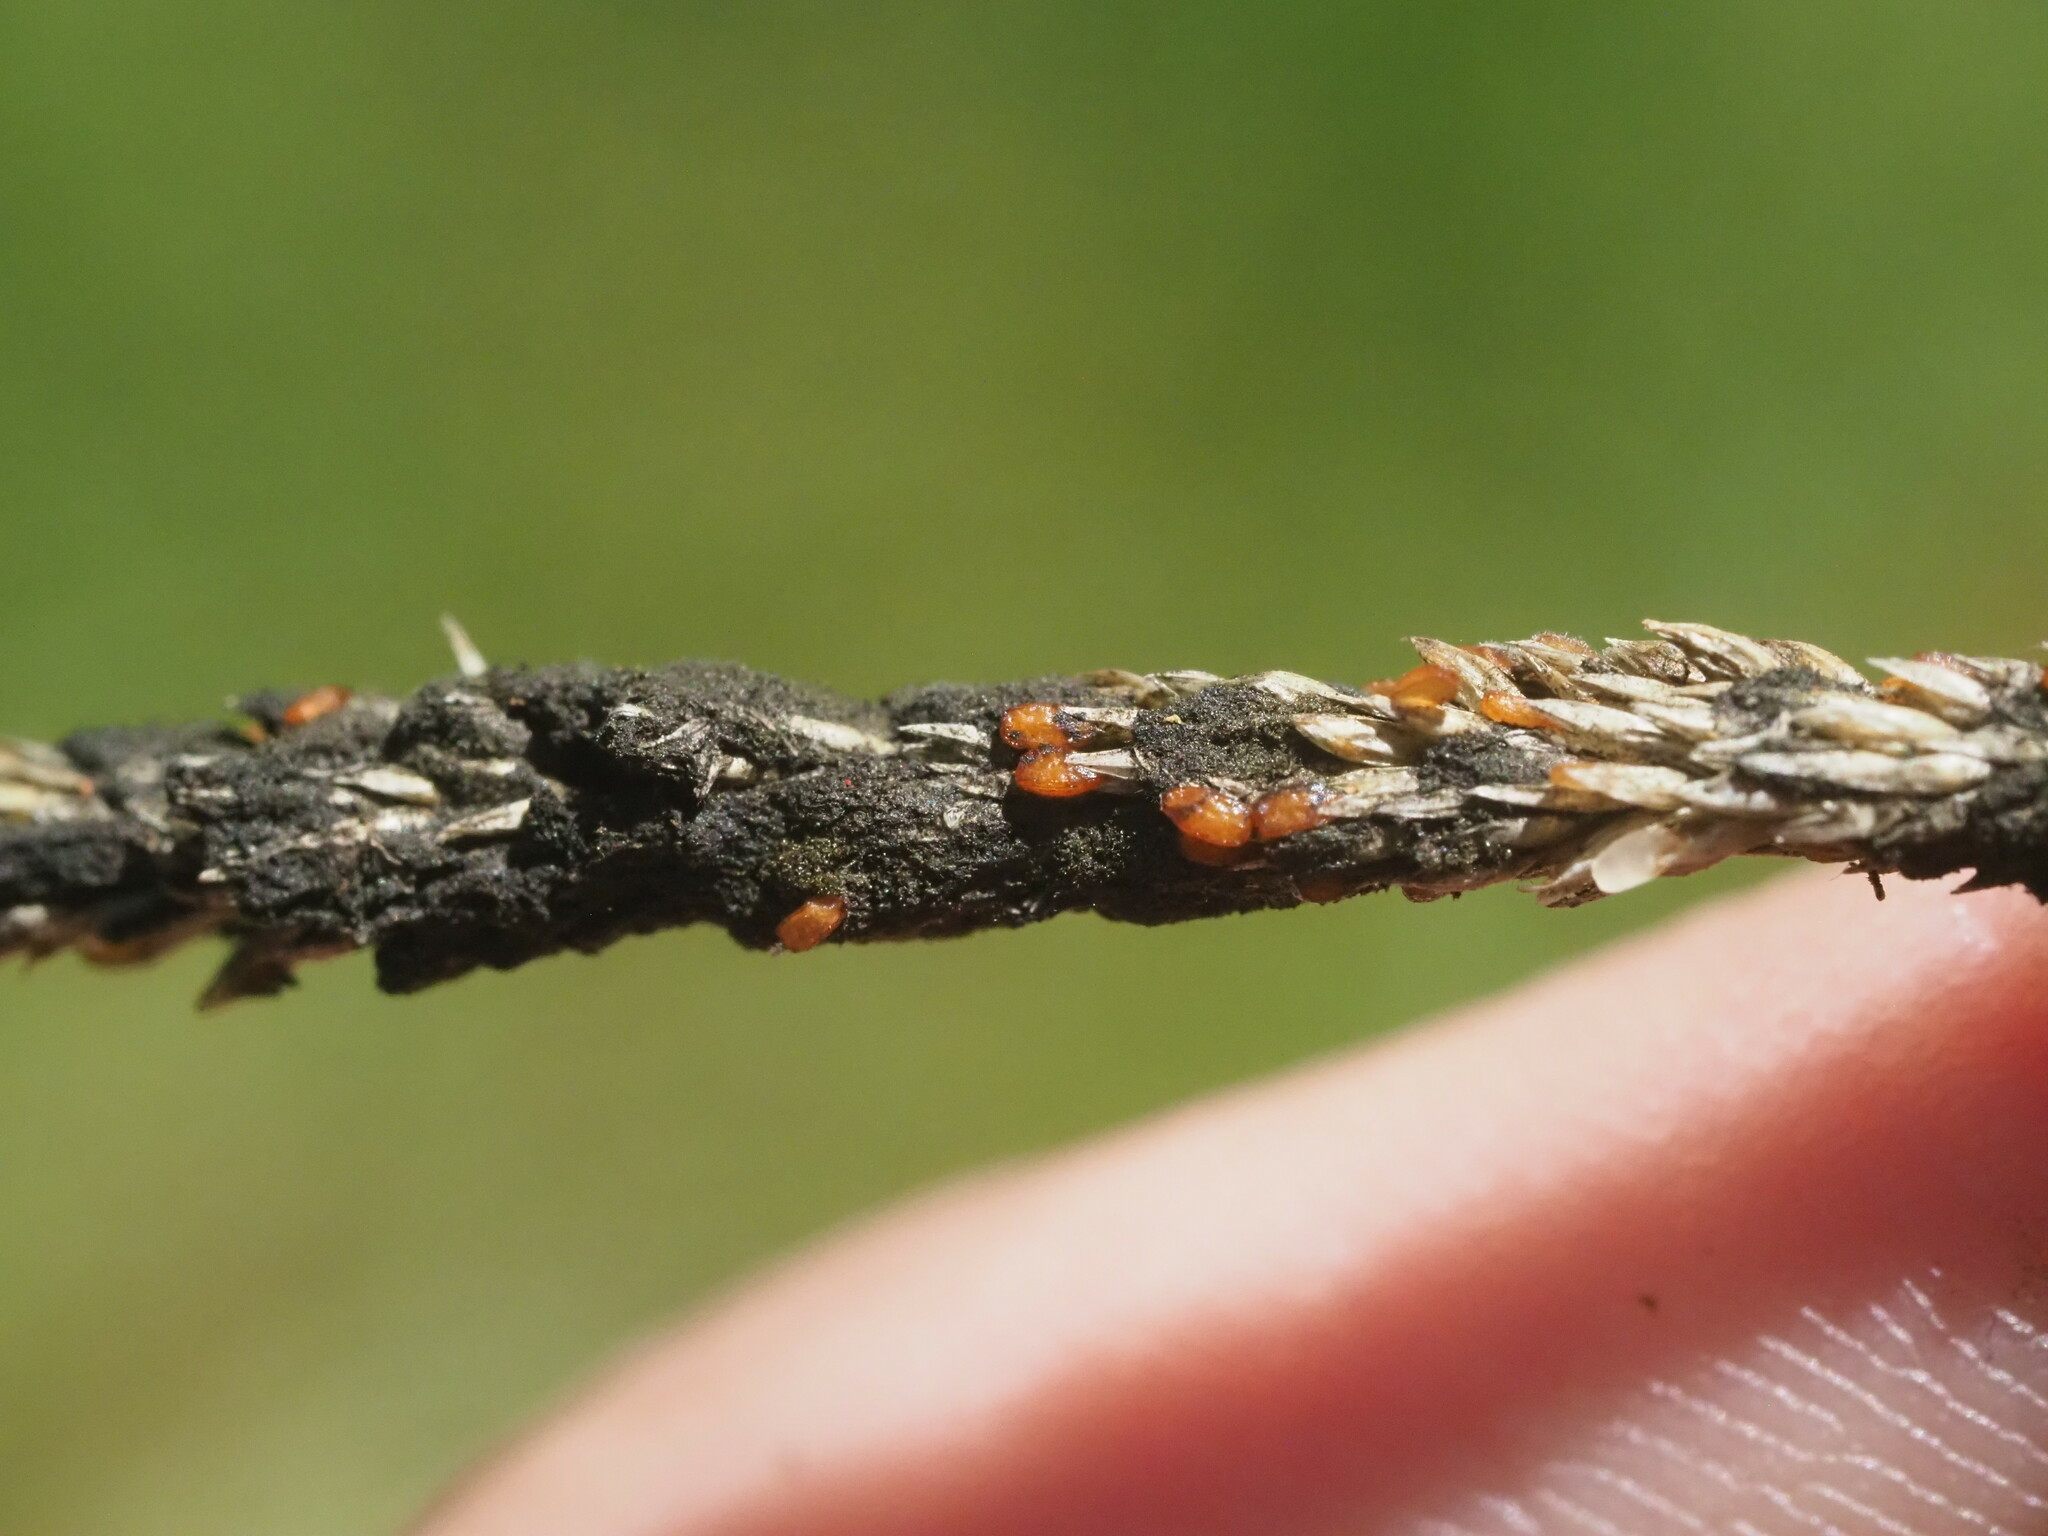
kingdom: Fungi
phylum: Ascomycota
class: Dothideomycetes
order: Pleosporales
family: Pleosporaceae
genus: Curvularia
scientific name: Curvularia ravenelii
